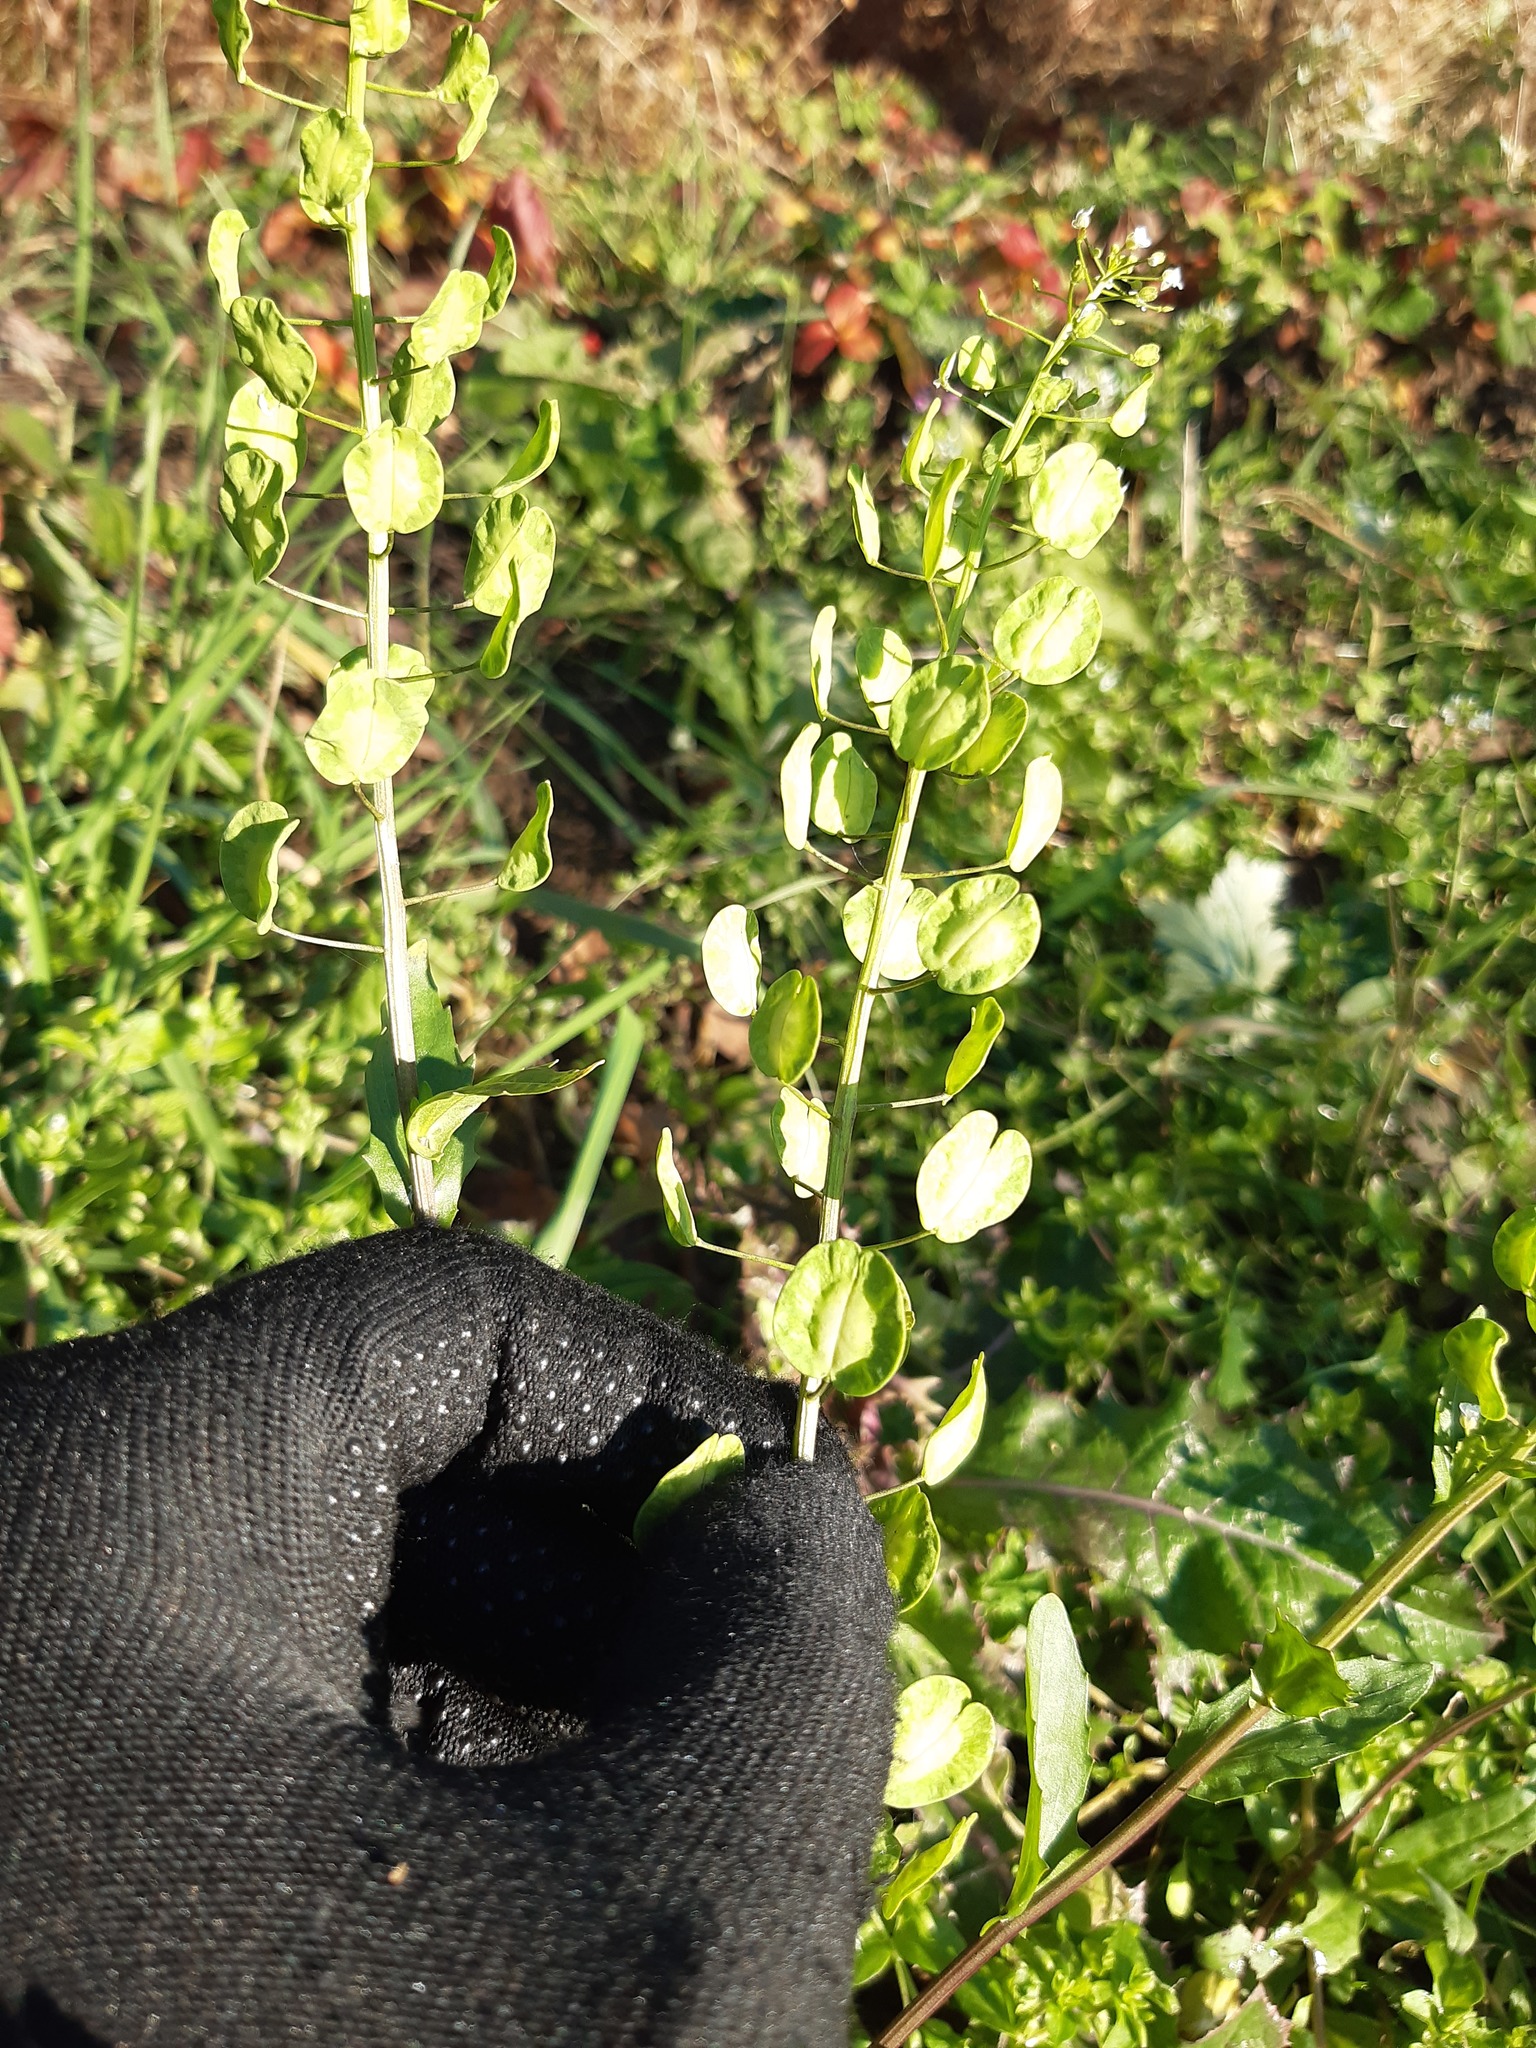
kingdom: Plantae
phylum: Tracheophyta
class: Magnoliopsida
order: Brassicales
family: Brassicaceae
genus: Thlaspi
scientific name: Thlaspi arvense
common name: Field pennycress
